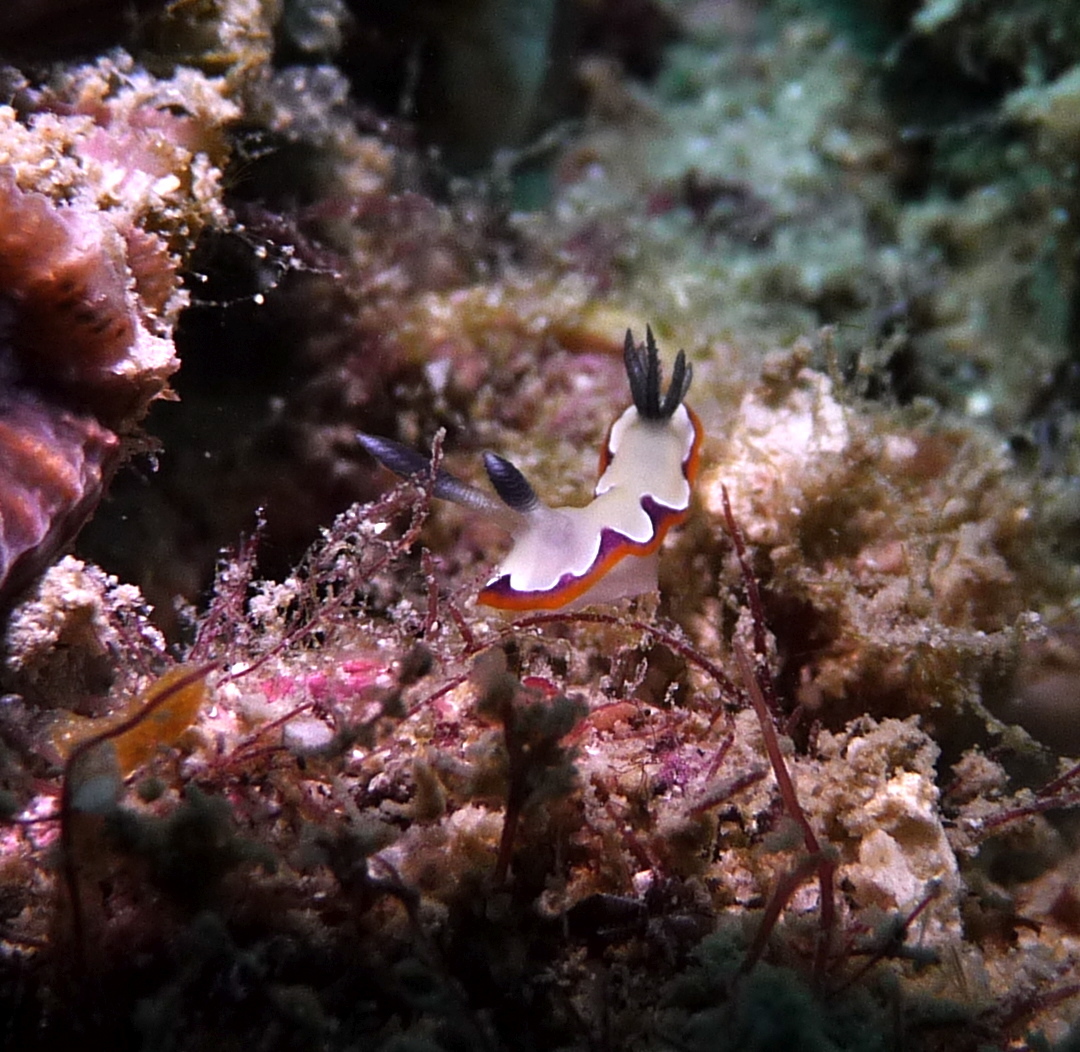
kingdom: Animalia
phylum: Mollusca
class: Gastropoda
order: Nudibranchia
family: Chromodorididae
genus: Goniobranchus
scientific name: Goniobranchus fidelis
